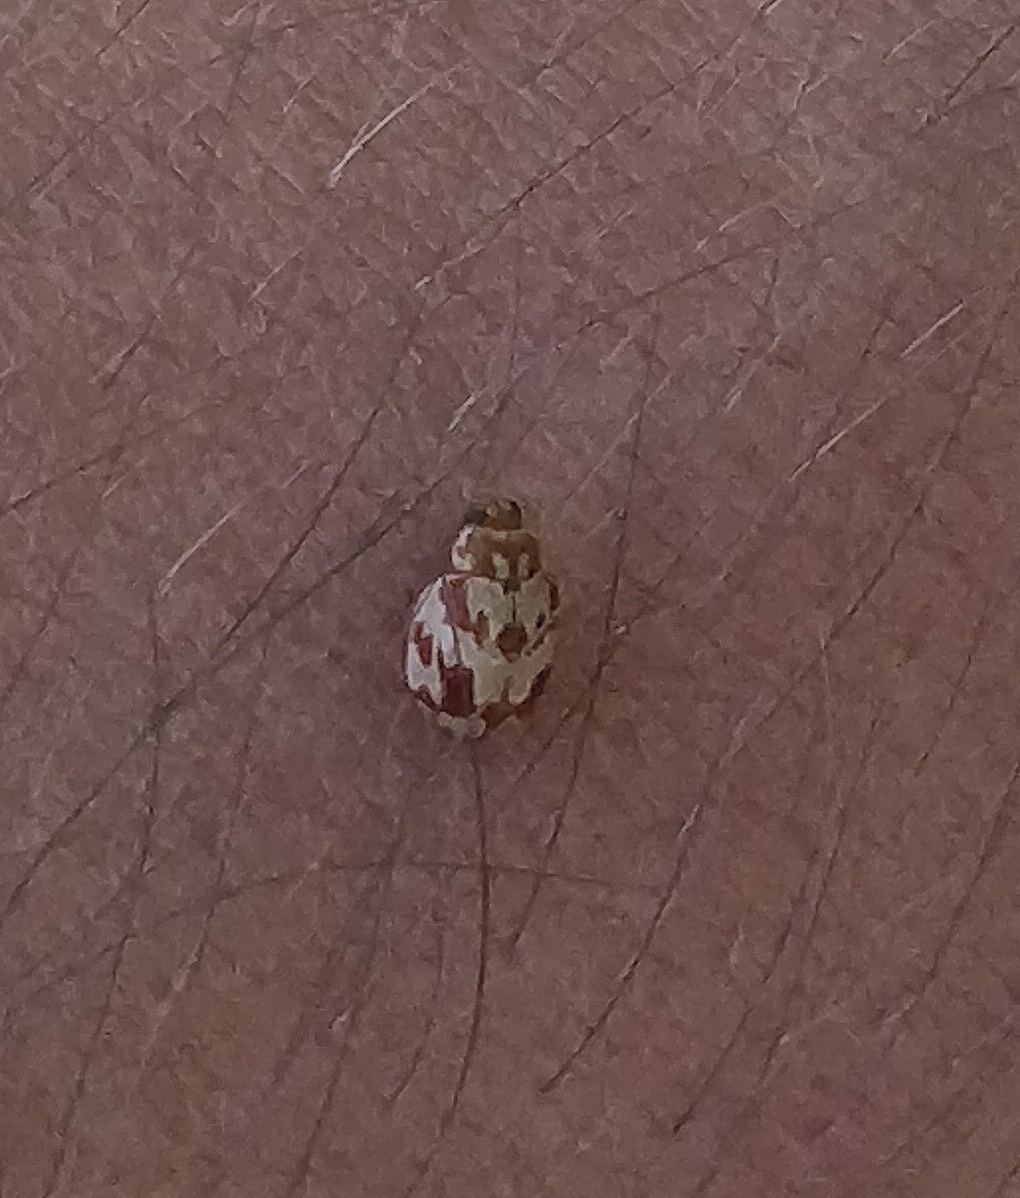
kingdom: Animalia
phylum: Arthropoda
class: Insecta
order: Coleoptera
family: Coccinellidae
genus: Myrrha
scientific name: Myrrha octodecimguttata
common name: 18-spot ladybird
